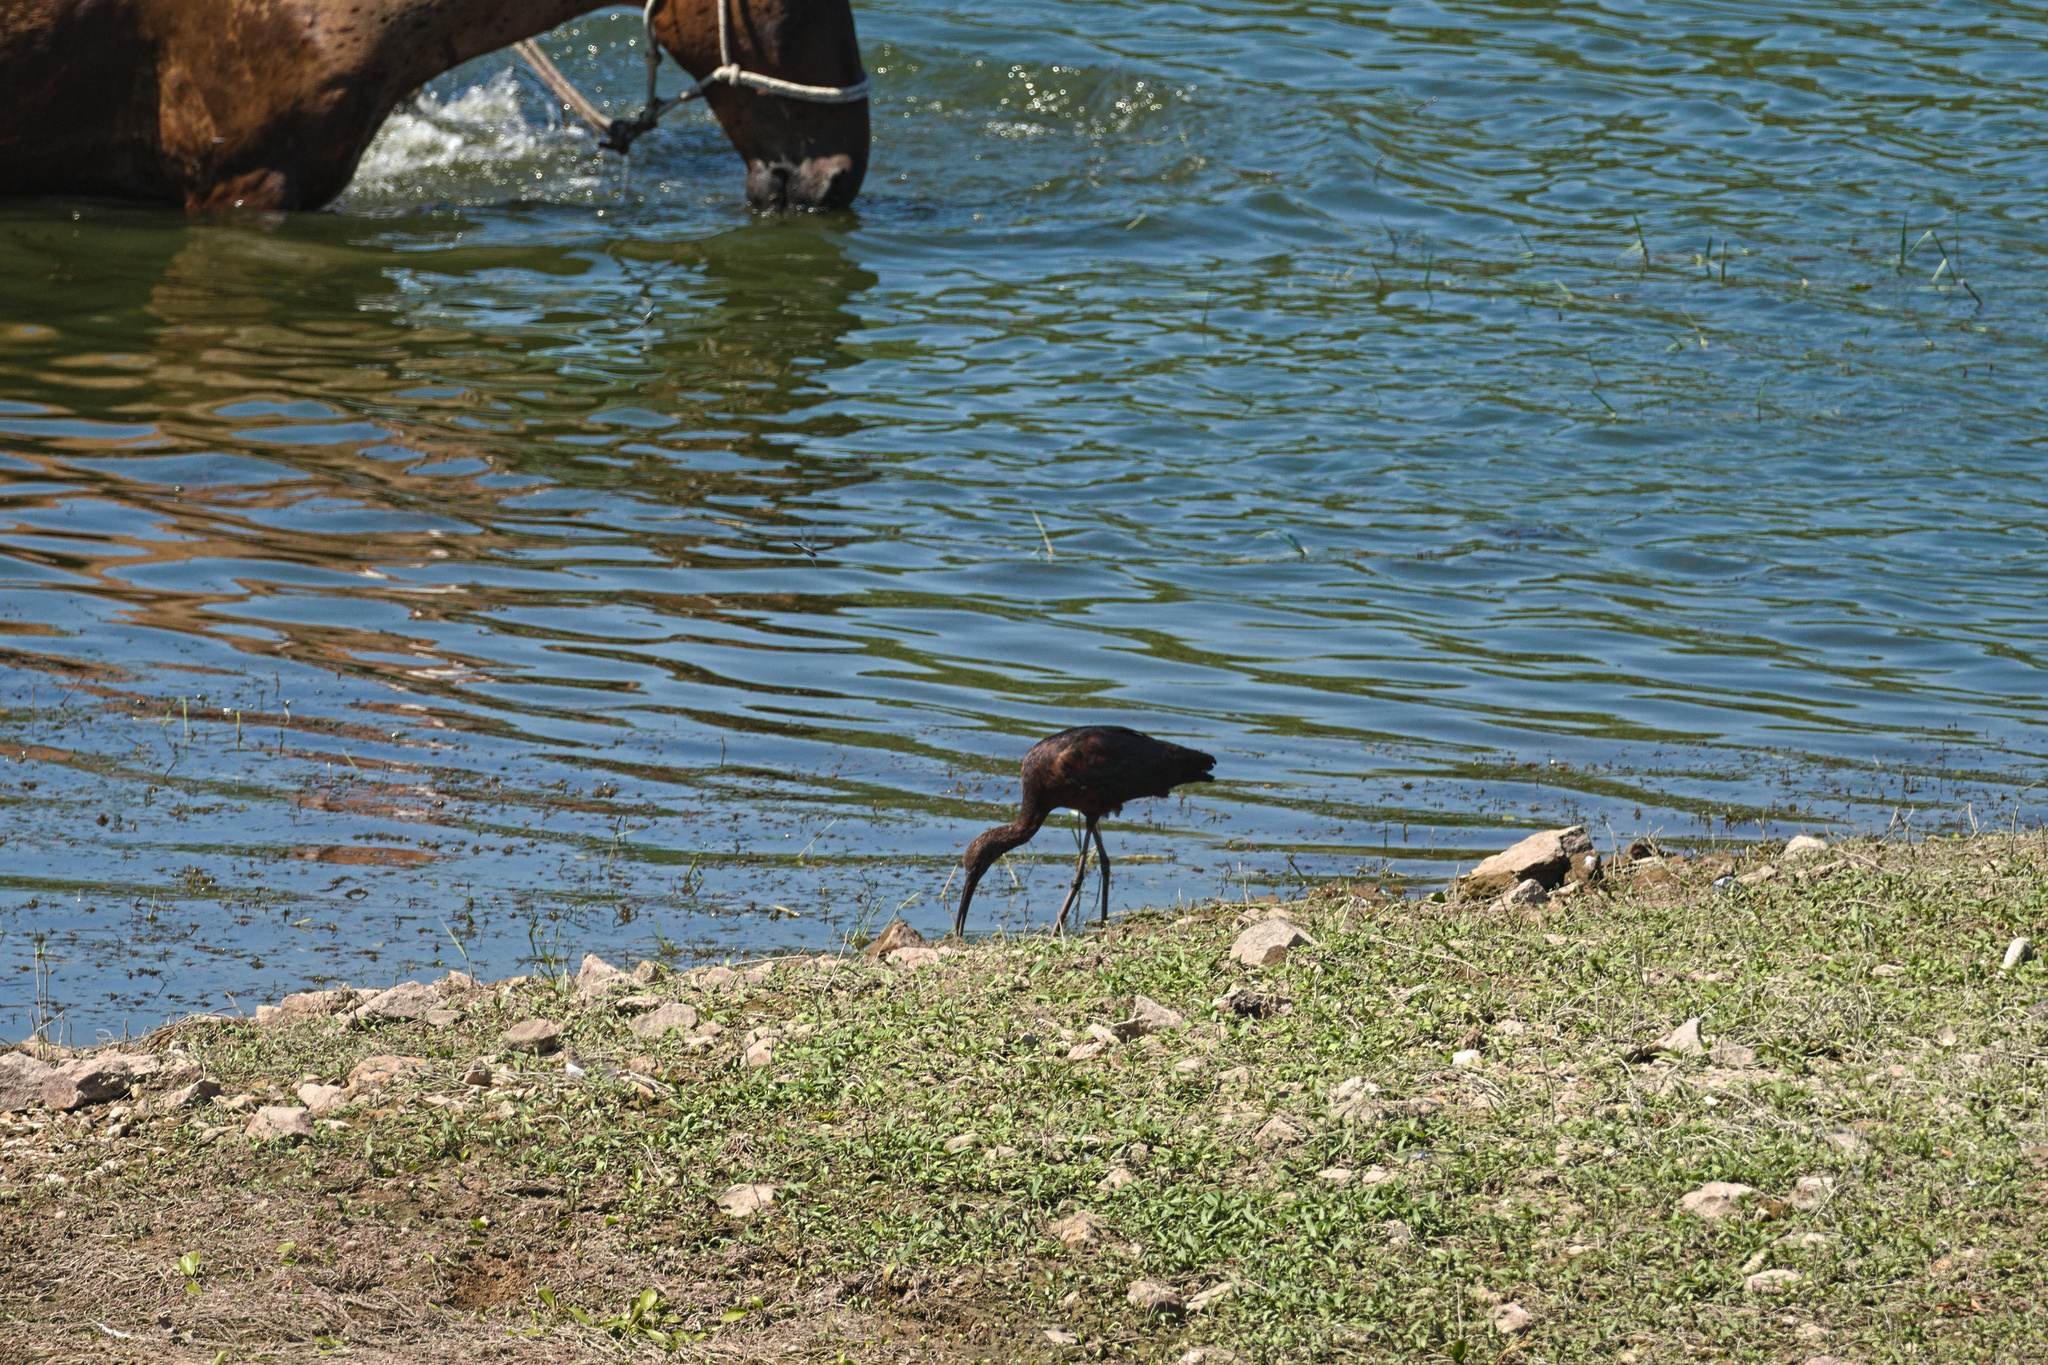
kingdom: Animalia
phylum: Chordata
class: Aves
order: Pelecaniformes
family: Threskiornithidae
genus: Plegadis
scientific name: Plegadis falcinellus
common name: Glossy ibis
